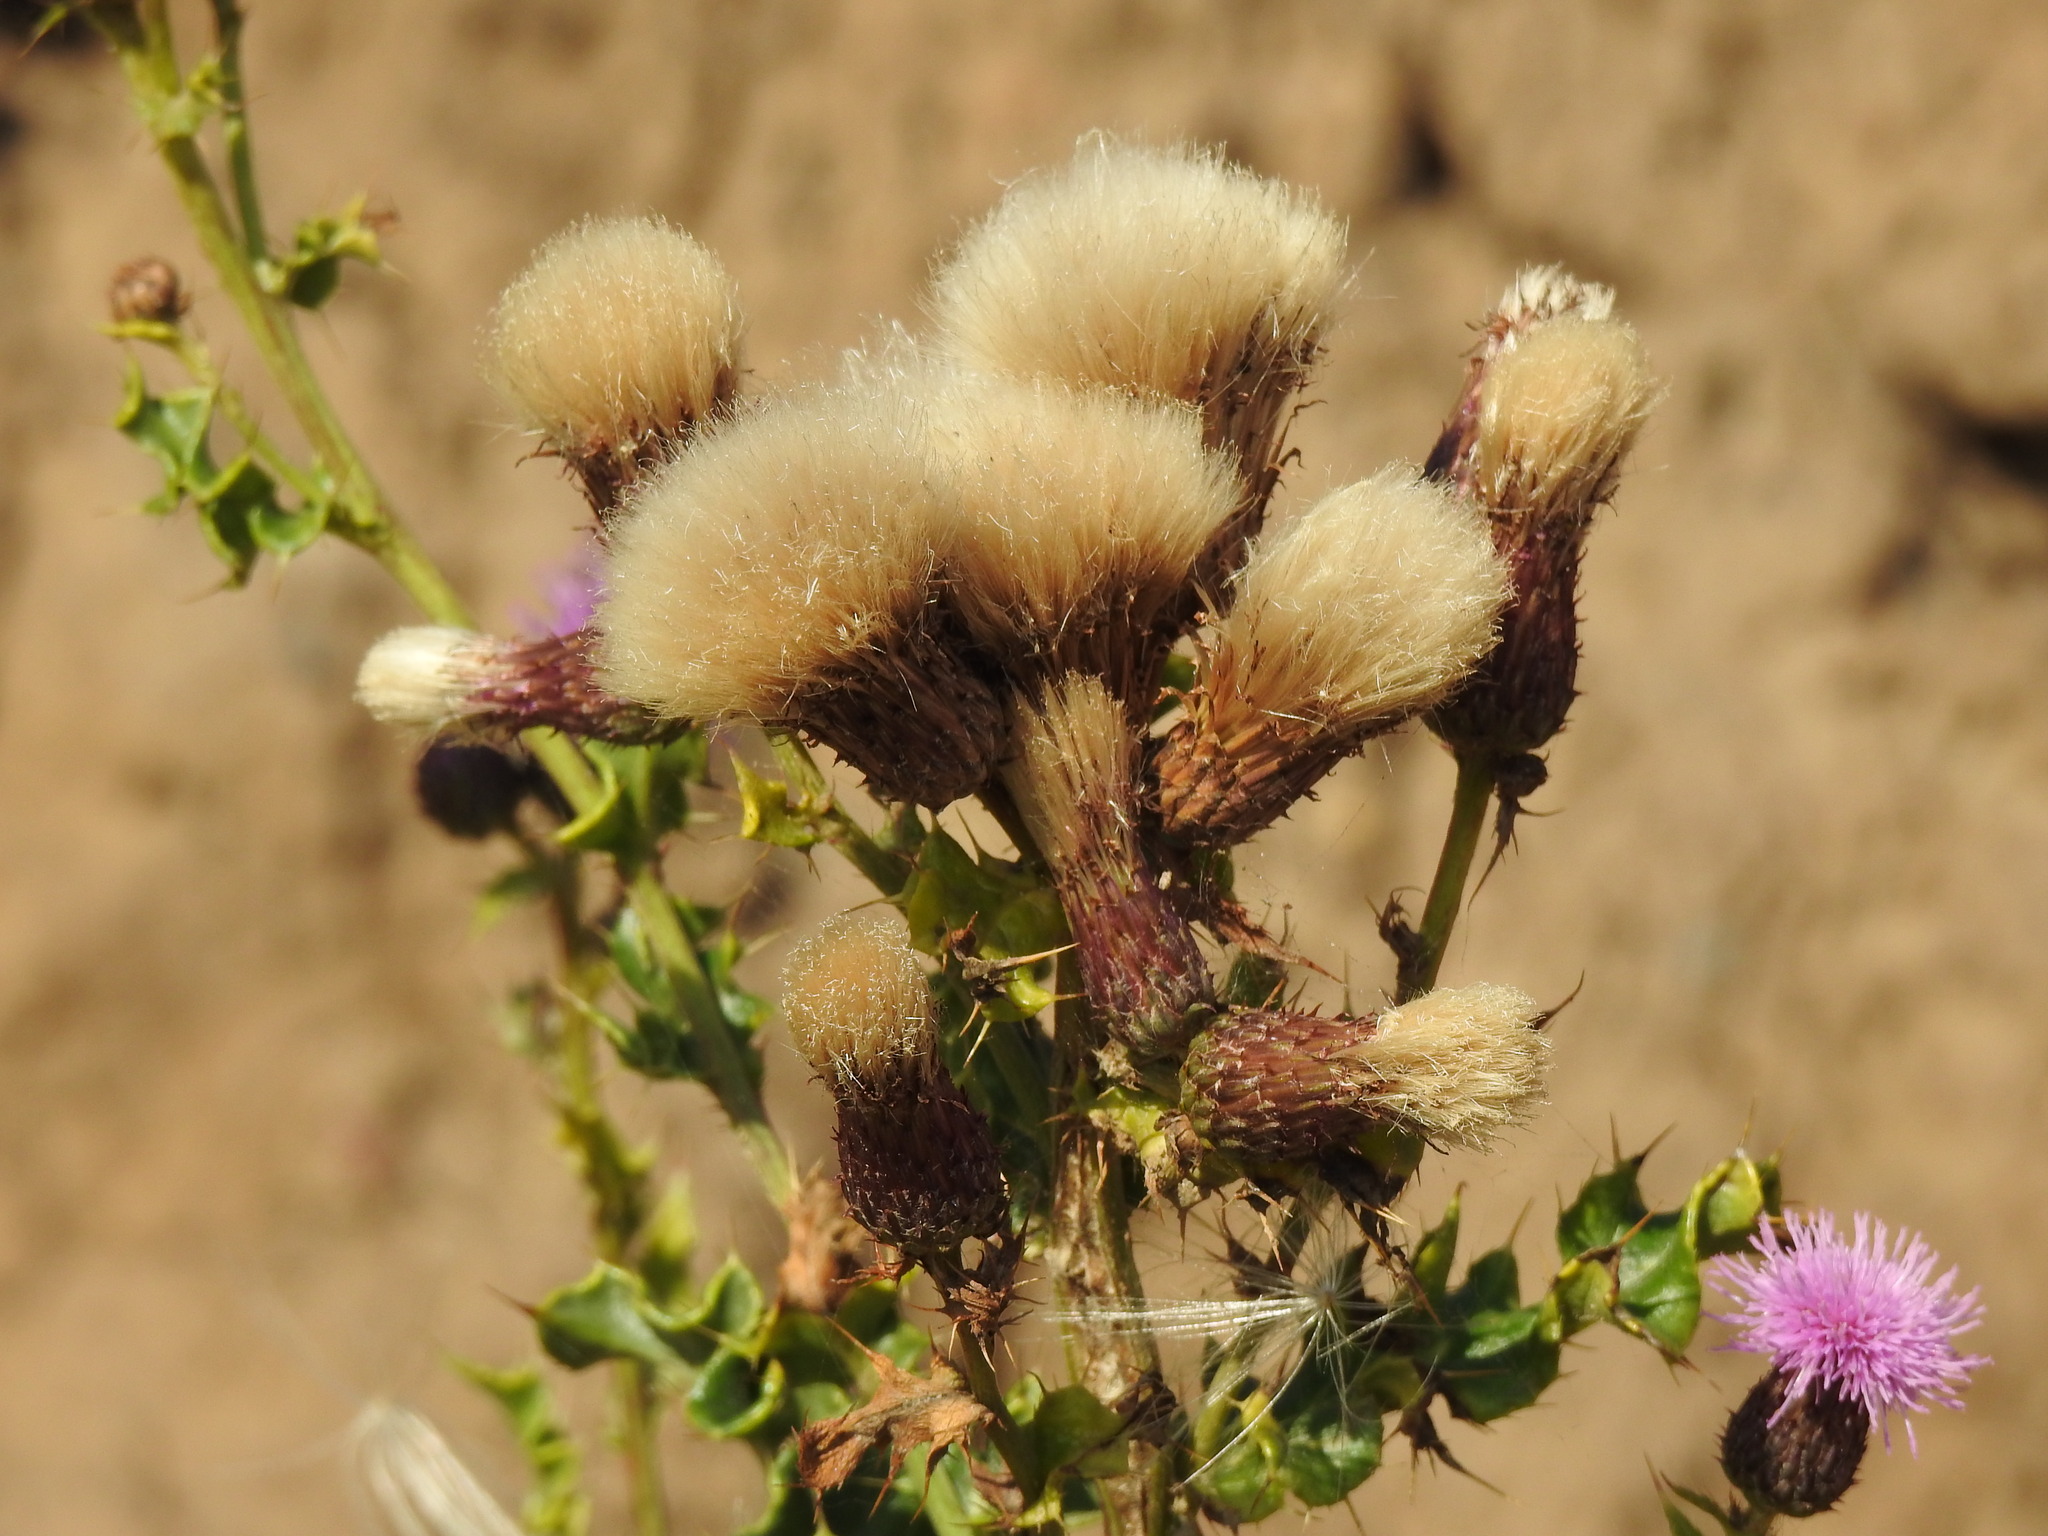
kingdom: Plantae
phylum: Tracheophyta
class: Magnoliopsida
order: Asterales
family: Asteraceae
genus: Cirsium
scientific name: Cirsium arvense
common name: Creeping thistle
